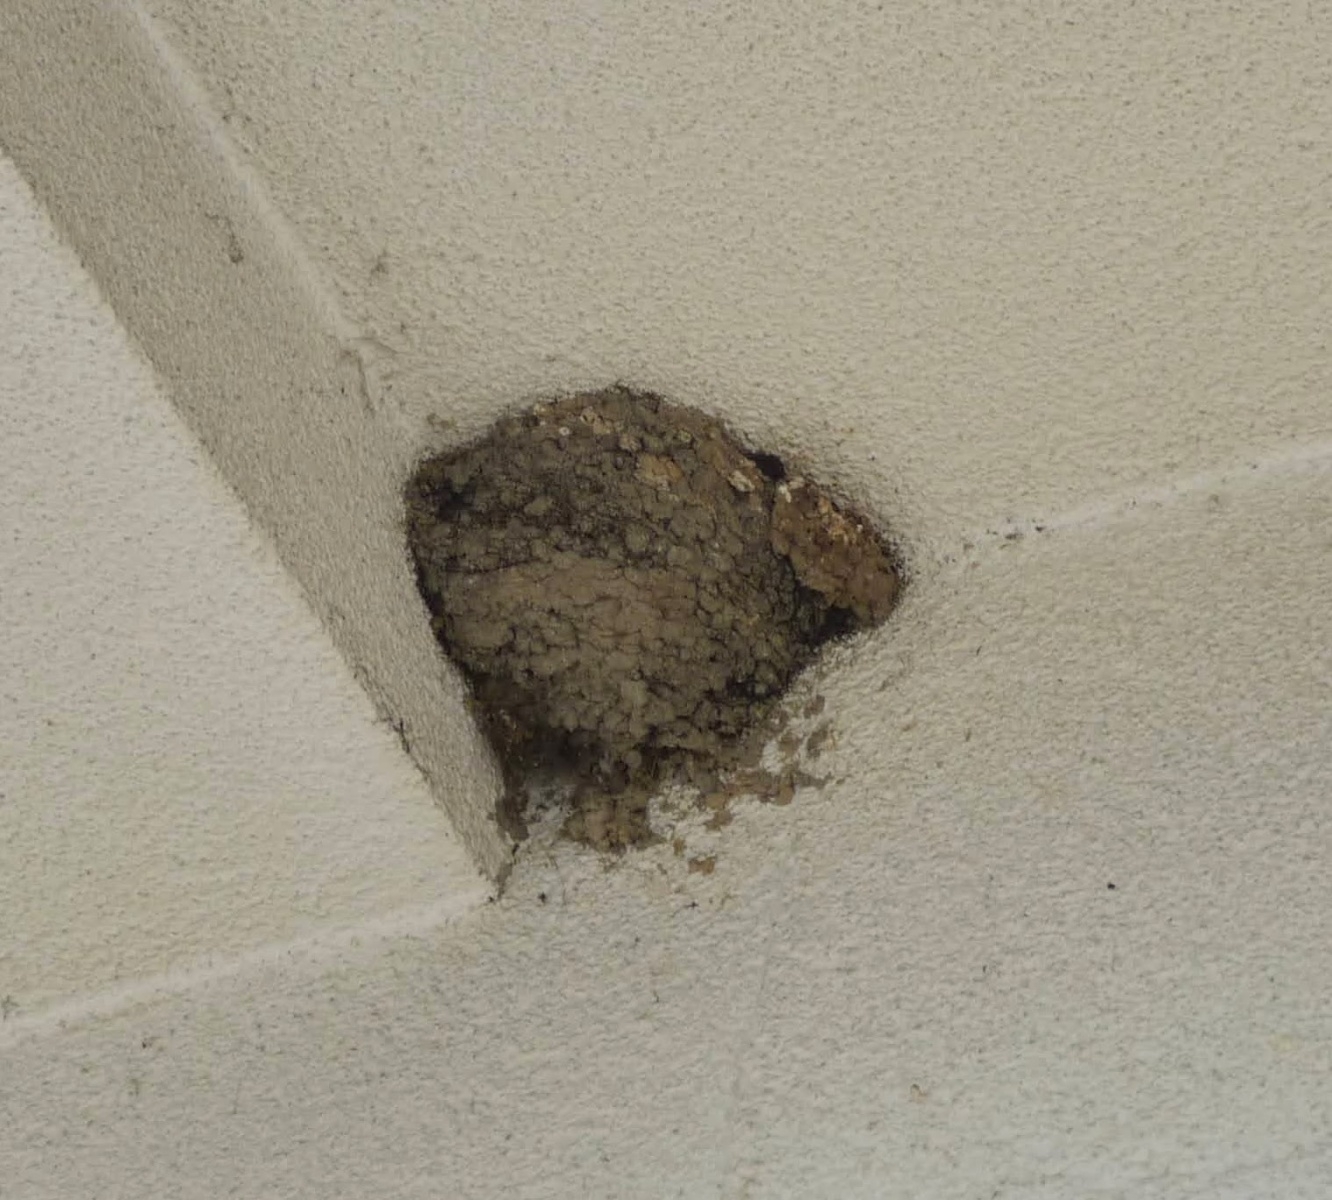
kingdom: Animalia
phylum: Chordata
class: Aves
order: Passeriformes
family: Hirundinidae
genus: Delichon
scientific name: Delichon urbicum
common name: Common house martin
